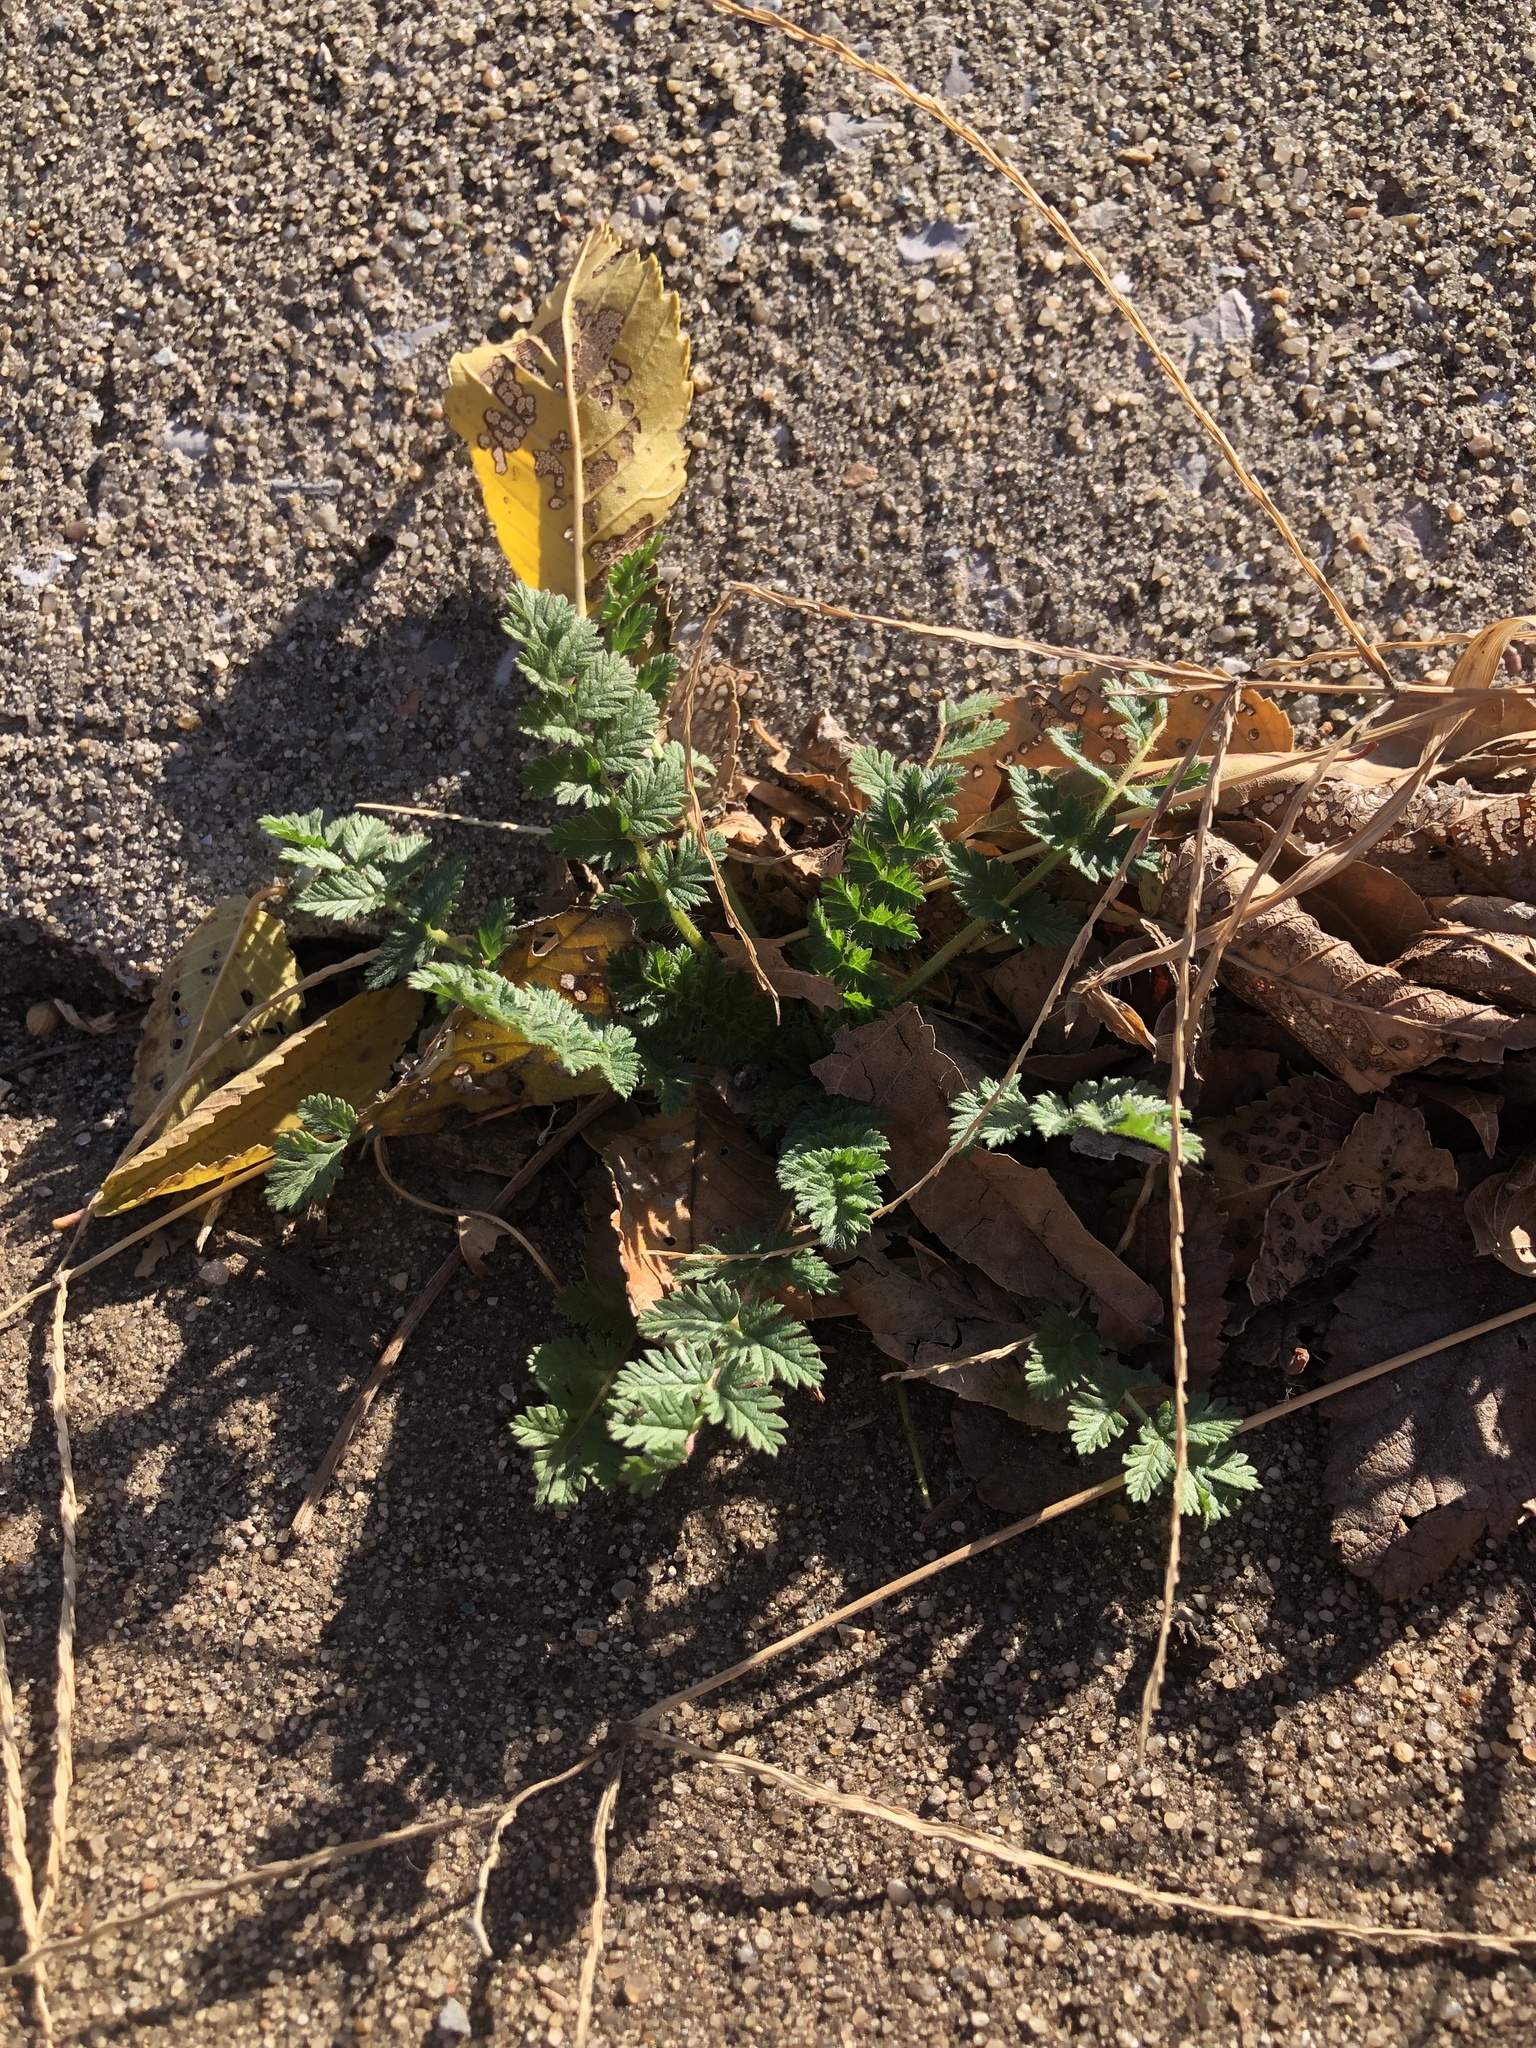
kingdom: Plantae
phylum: Tracheophyta
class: Magnoliopsida
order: Geraniales
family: Geraniaceae
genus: Erodium
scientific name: Erodium cicutarium
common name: Common stork's-bill
